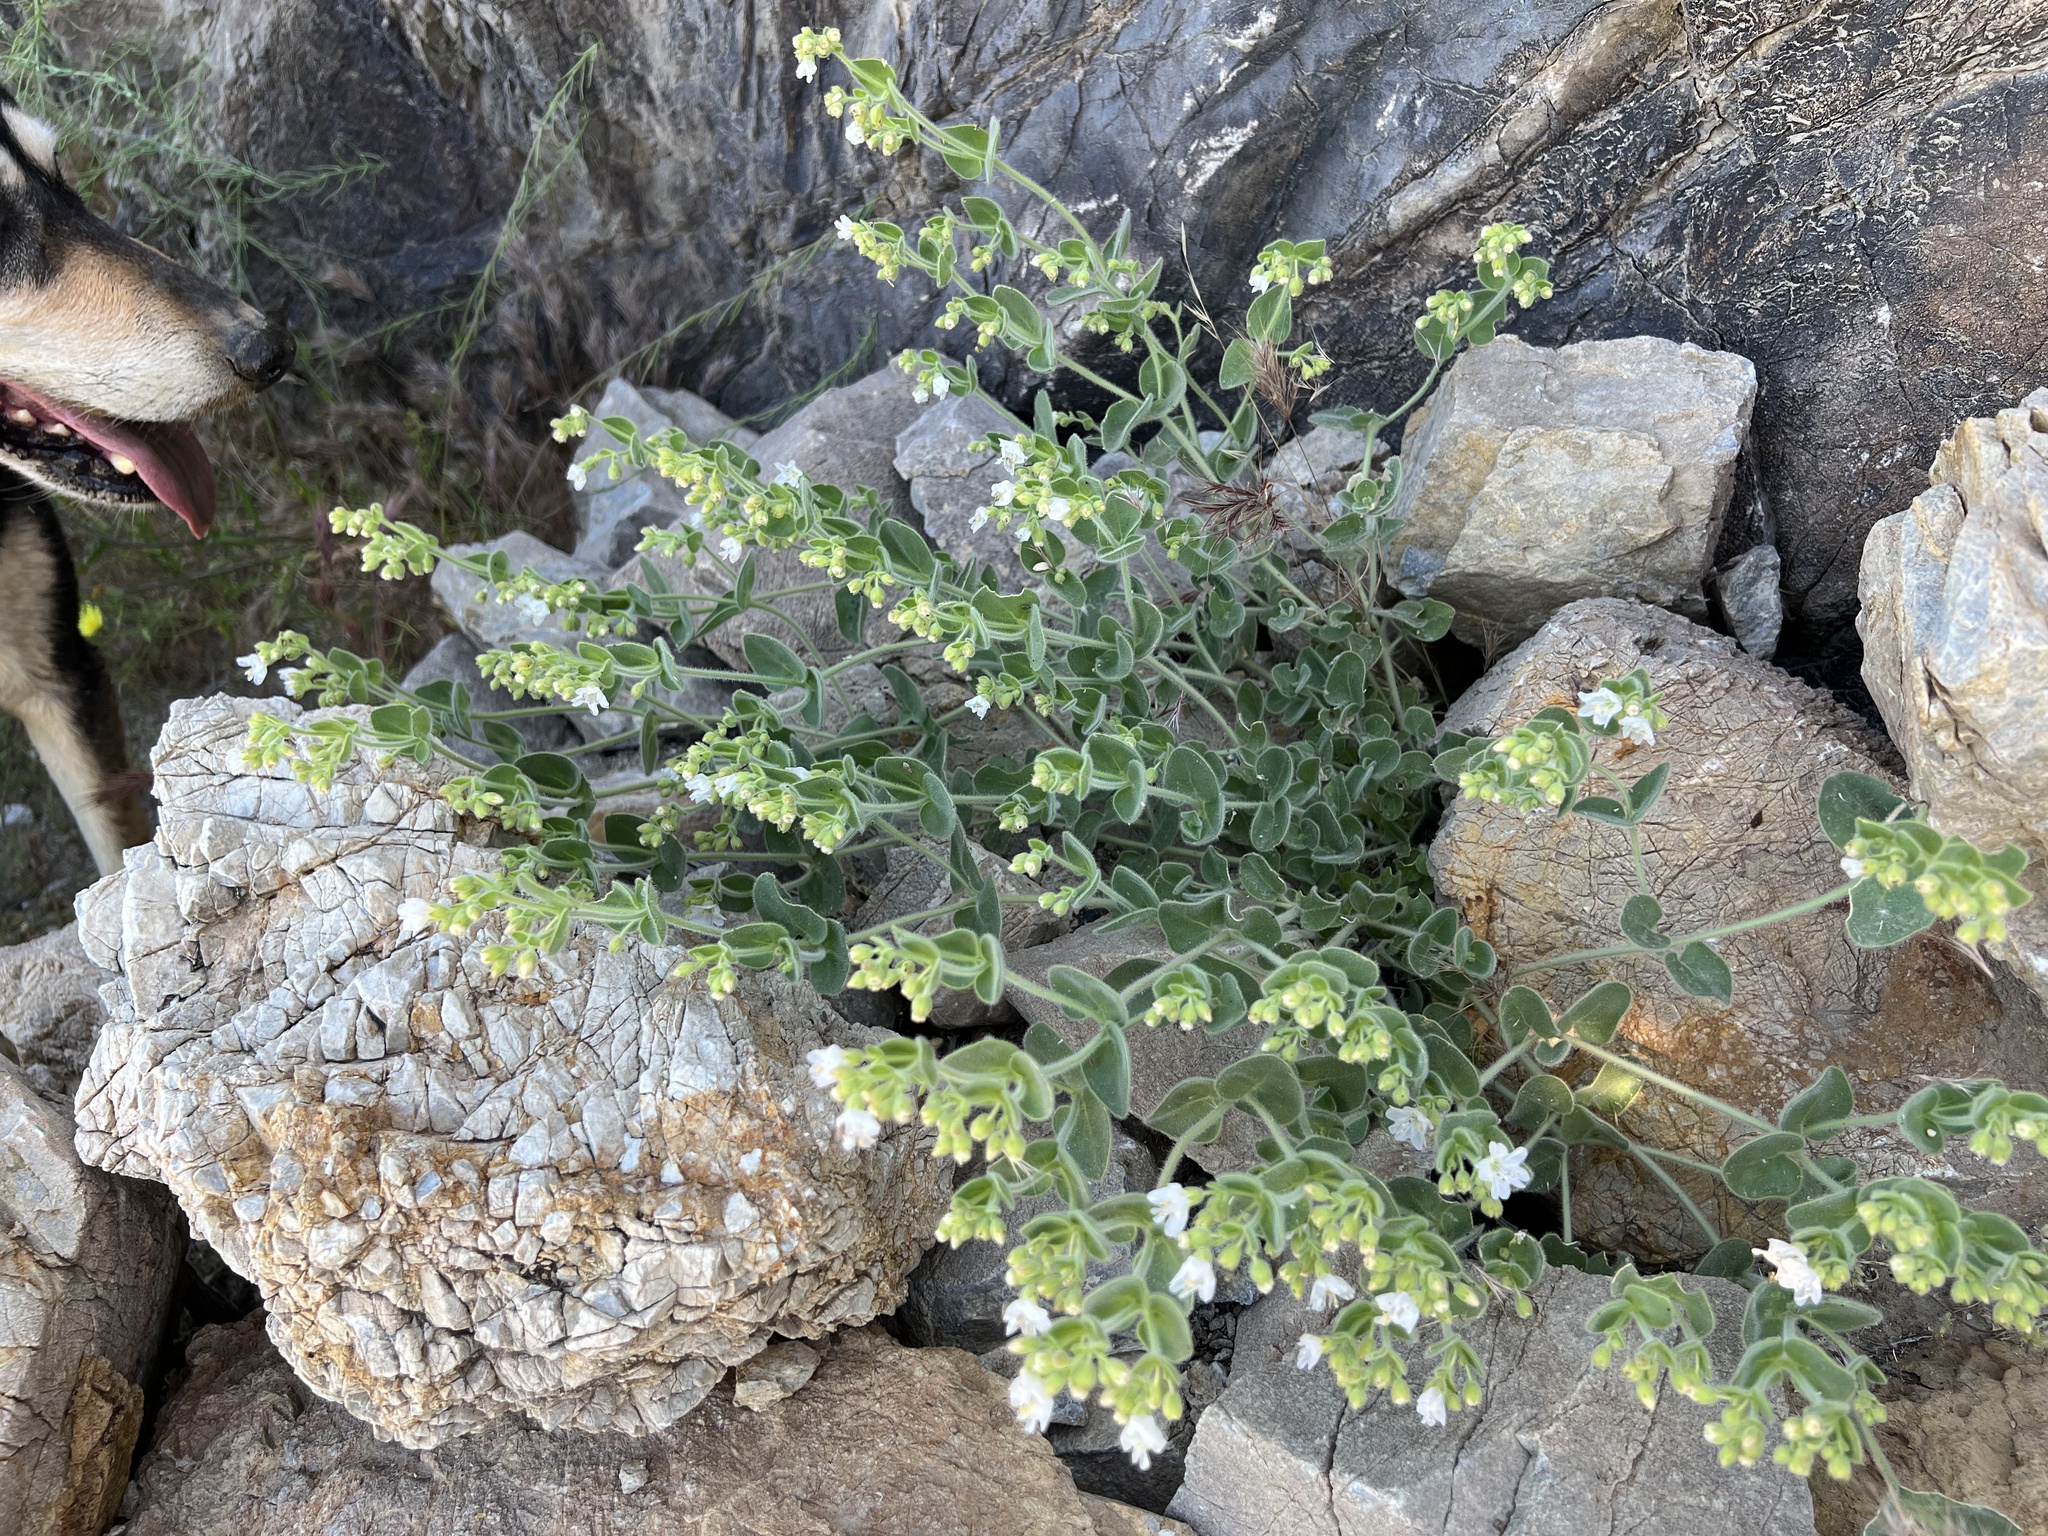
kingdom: Plantae
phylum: Tracheophyta
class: Magnoliopsida
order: Caryophyllales
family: Nyctaginaceae
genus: Mirabilis
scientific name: Mirabilis laevis
